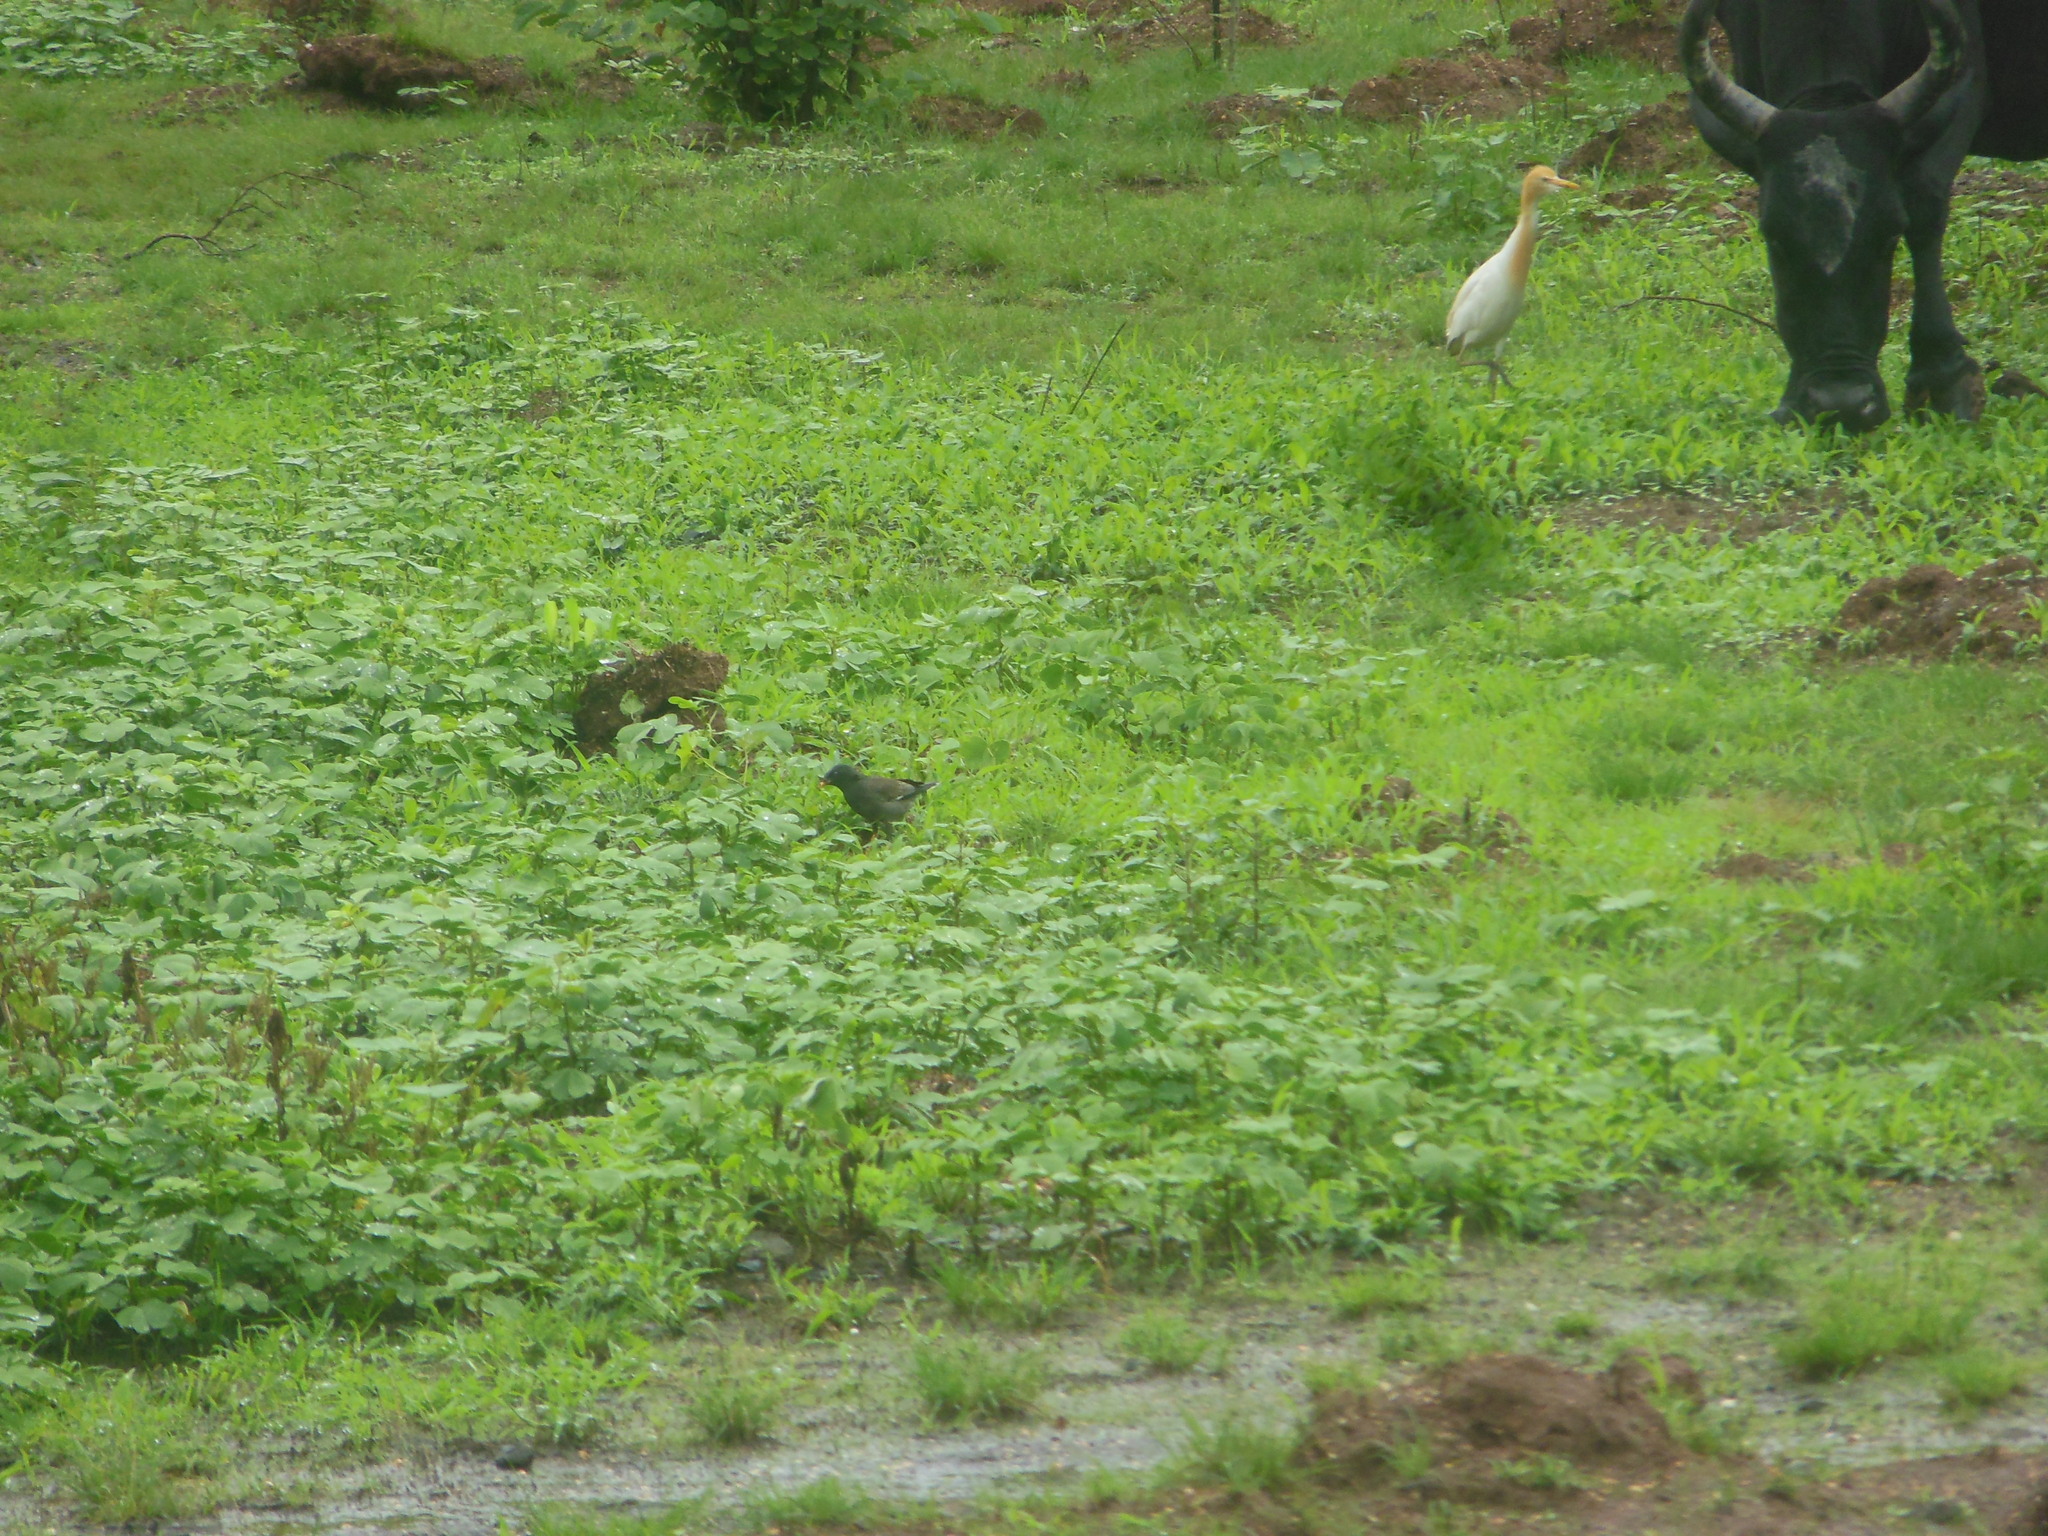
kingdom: Animalia
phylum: Chordata
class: Aves
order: Passeriformes
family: Sturnidae
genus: Acridotheres
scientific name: Acridotheres fuscus
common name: Jungle myna
